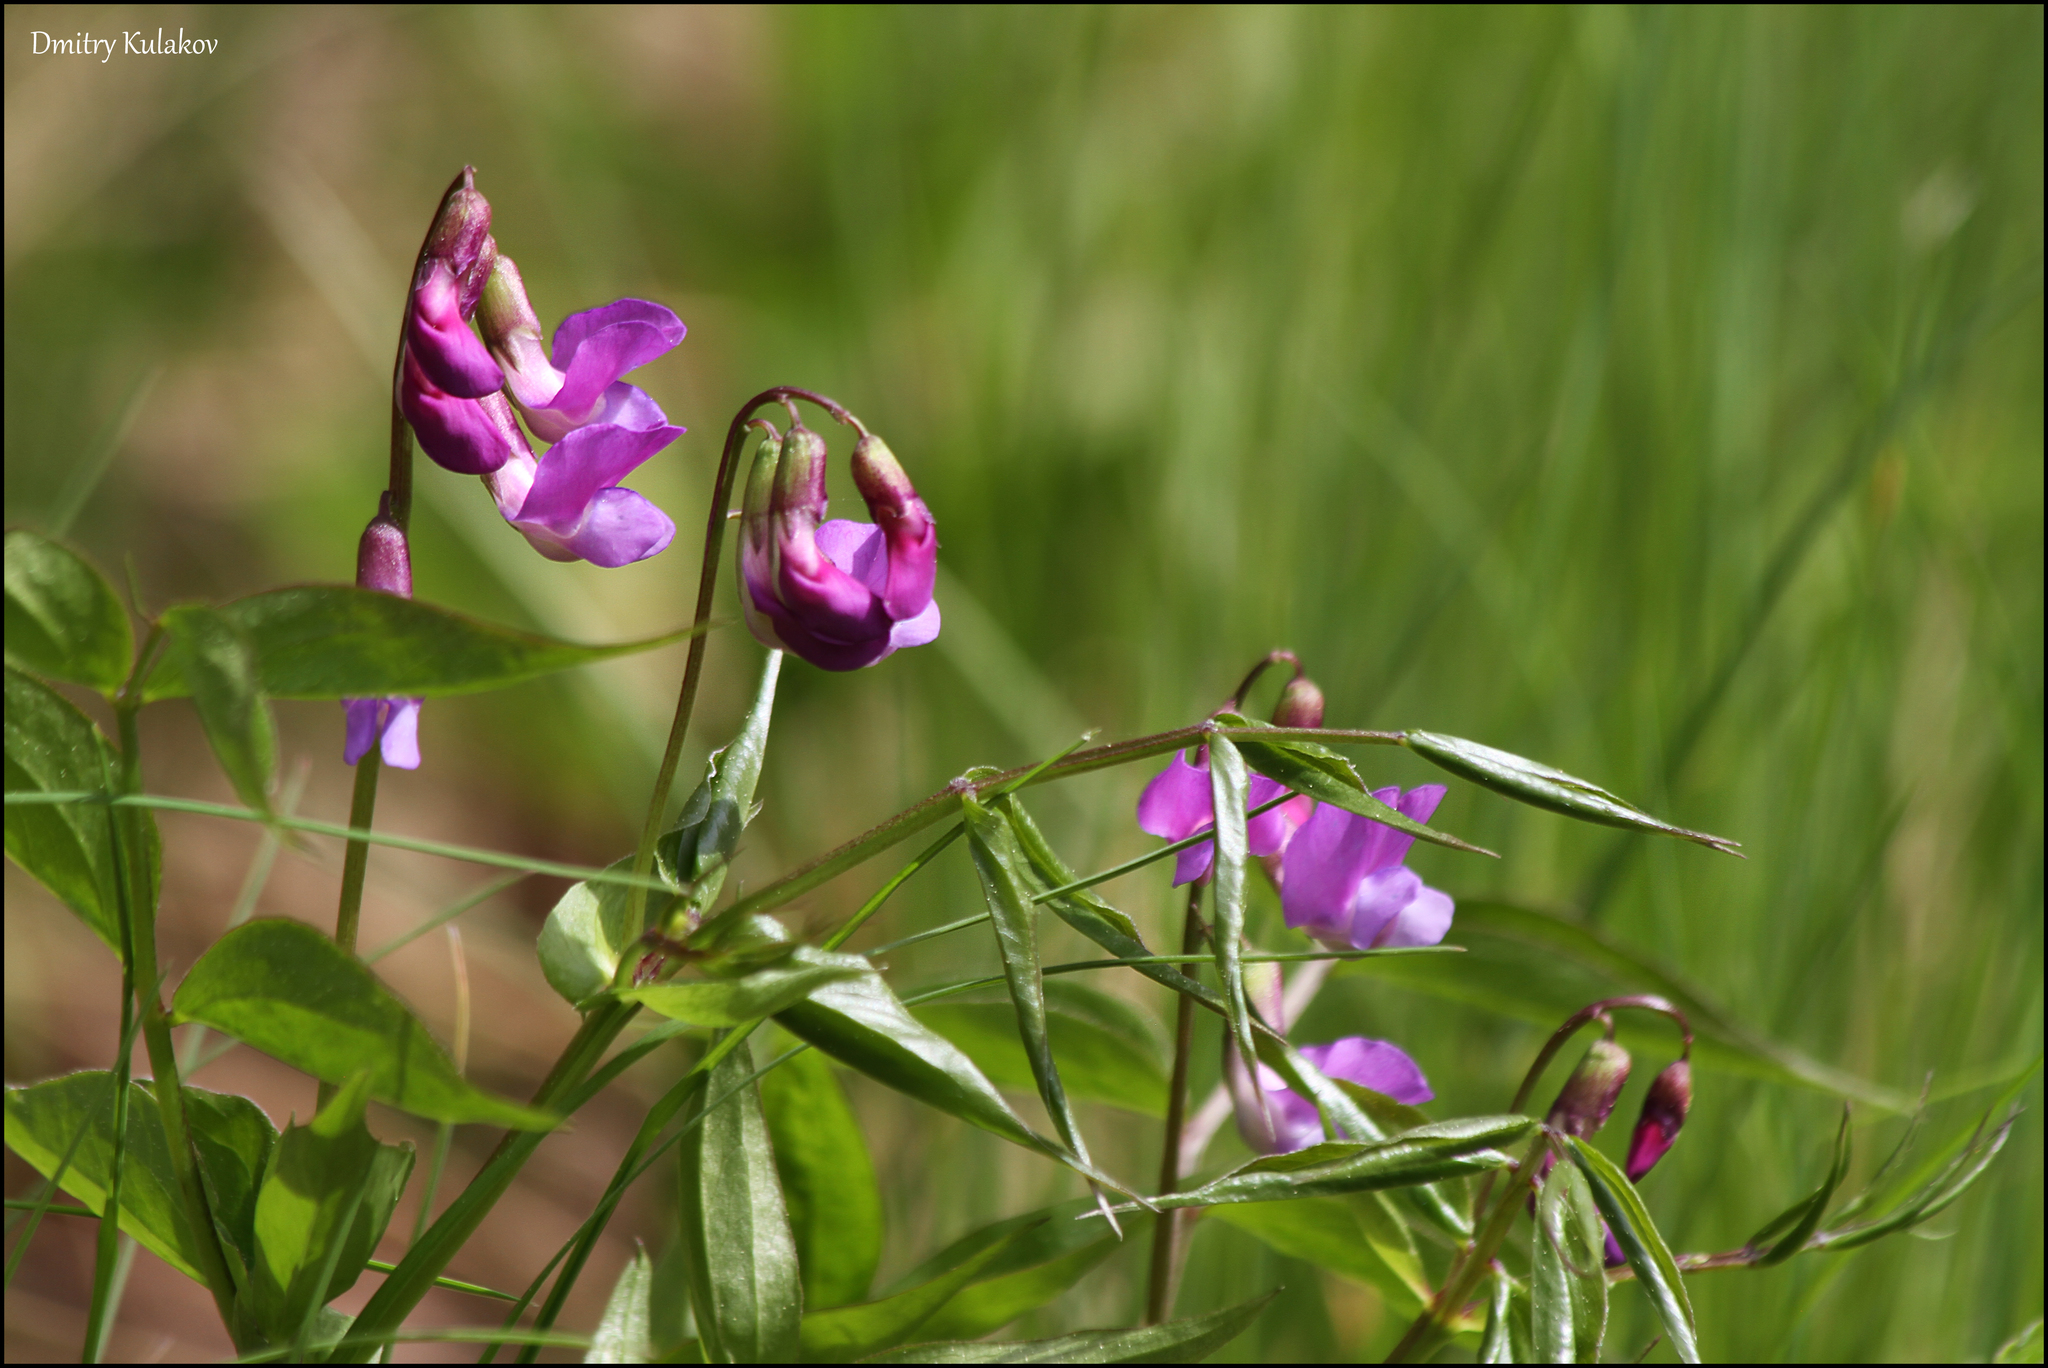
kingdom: Plantae
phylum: Tracheophyta
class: Magnoliopsida
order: Fabales
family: Fabaceae
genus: Lathyrus
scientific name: Lathyrus vernus
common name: Spring pea
